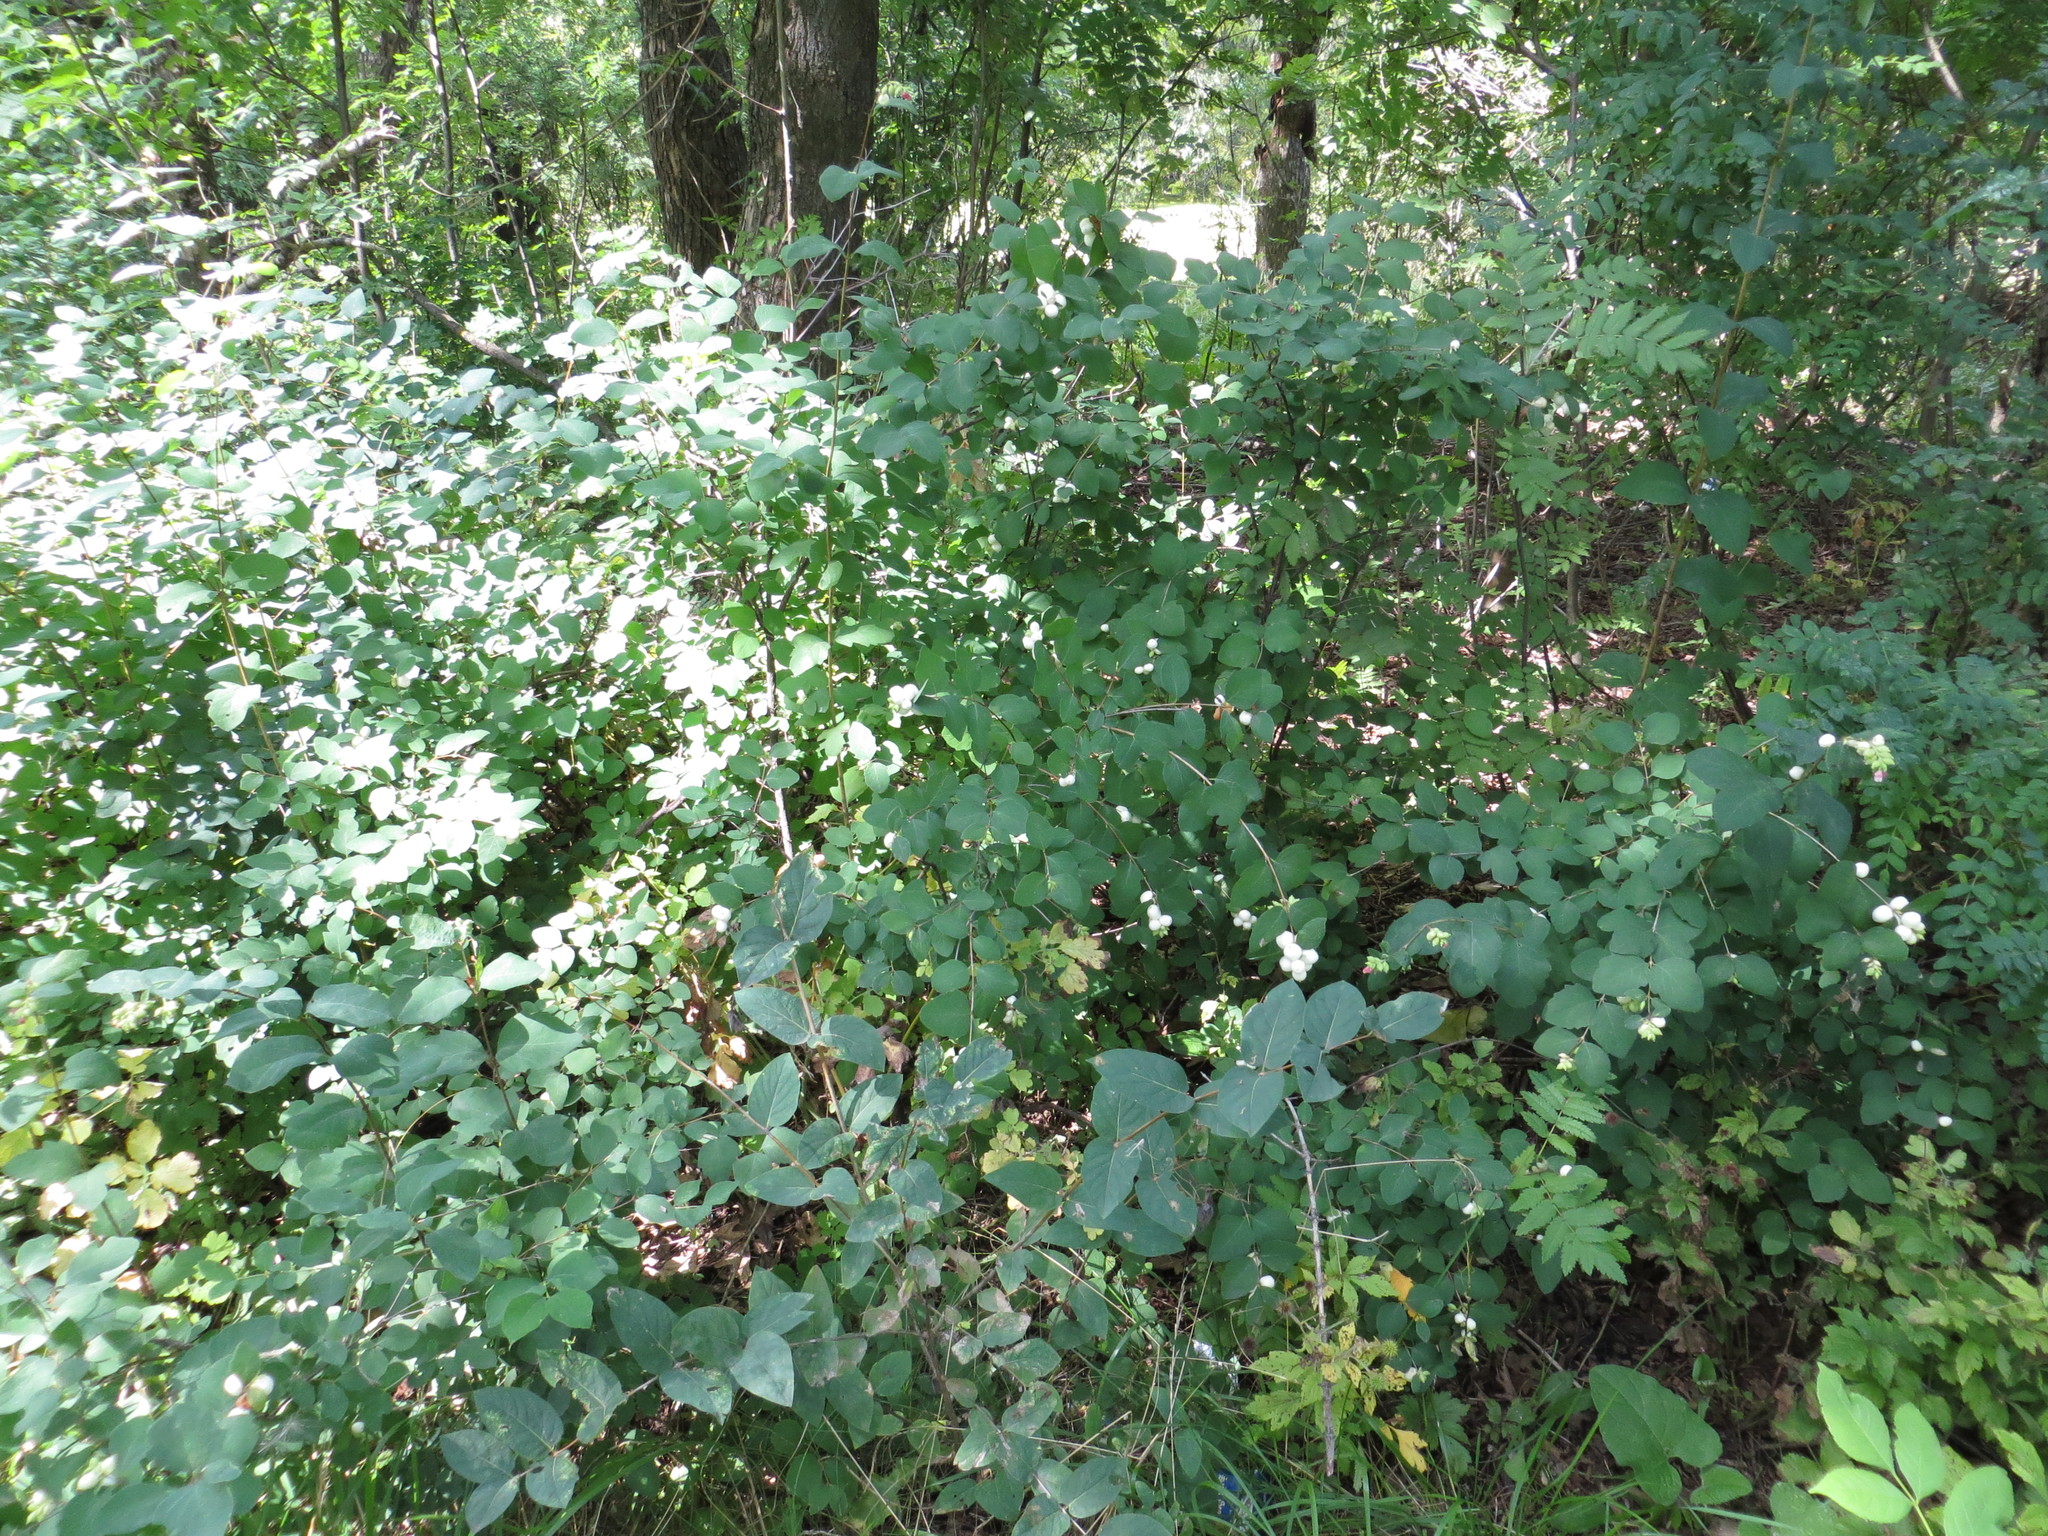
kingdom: Plantae
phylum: Tracheophyta
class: Magnoliopsida
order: Dipsacales
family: Caprifoliaceae
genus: Symphoricarpos
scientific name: Symphoricarpos albus
